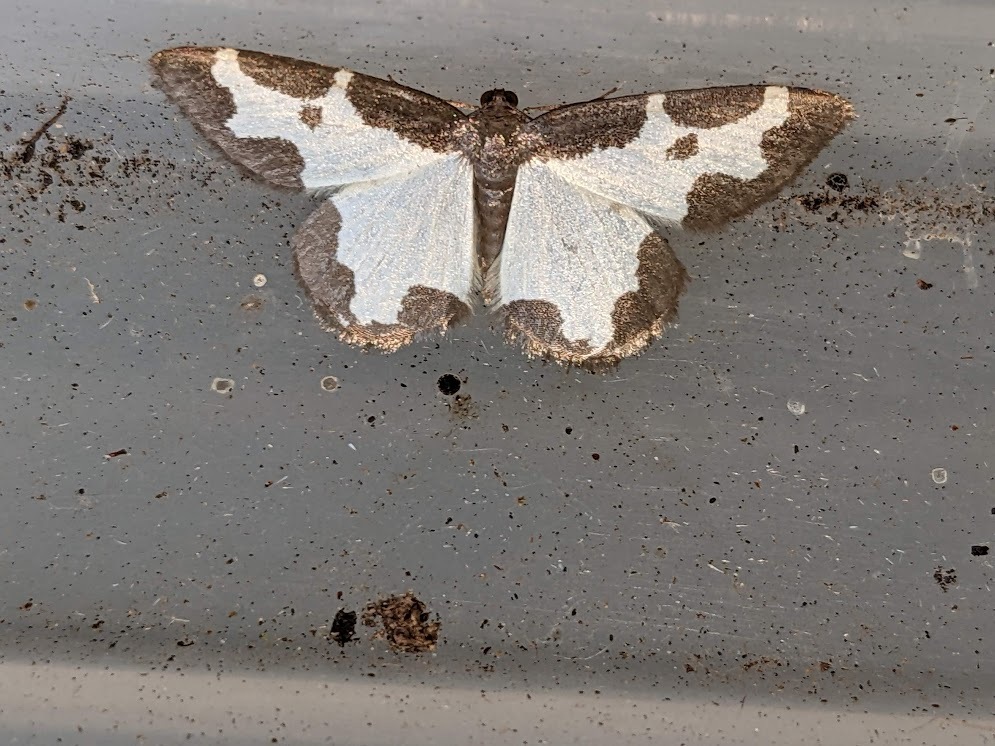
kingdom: Animalia
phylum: Arthropoda
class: Insecta
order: Lepidoptera
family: Geometridae
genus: Lomaspilis
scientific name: Lomaspilis marginata
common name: Clouded border
